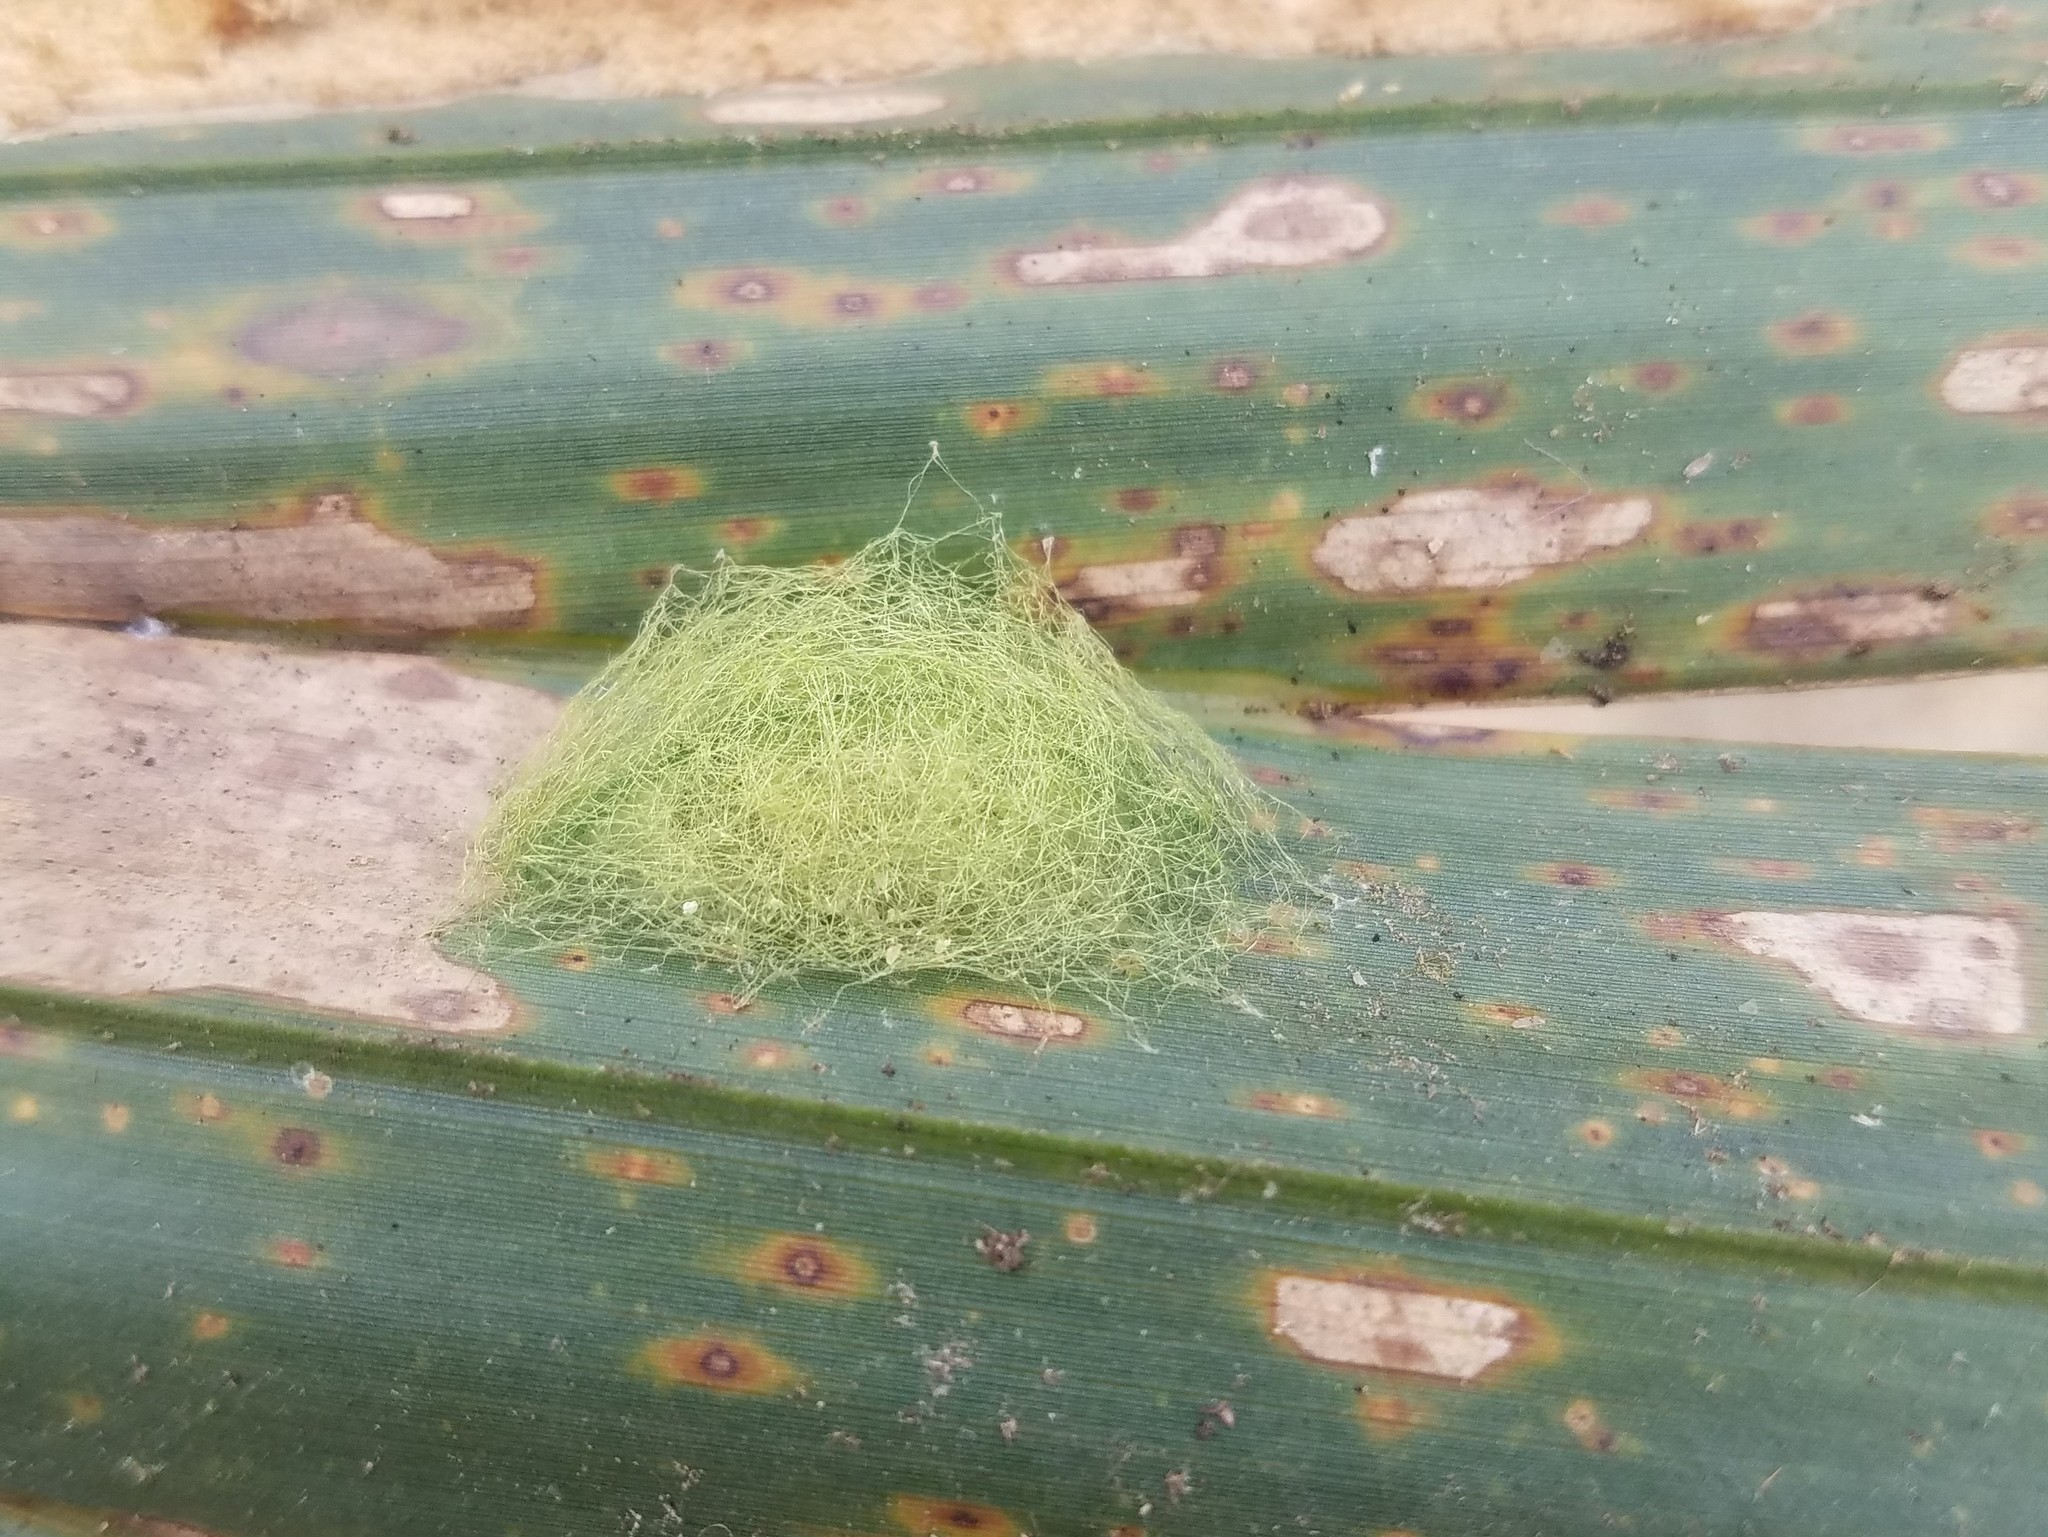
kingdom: Animalia
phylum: Arthropoda
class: Arachnida
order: Araneae
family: Araneidae
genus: Gasteracantha
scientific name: Gasteracantha cancriformis
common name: Orb weavers
